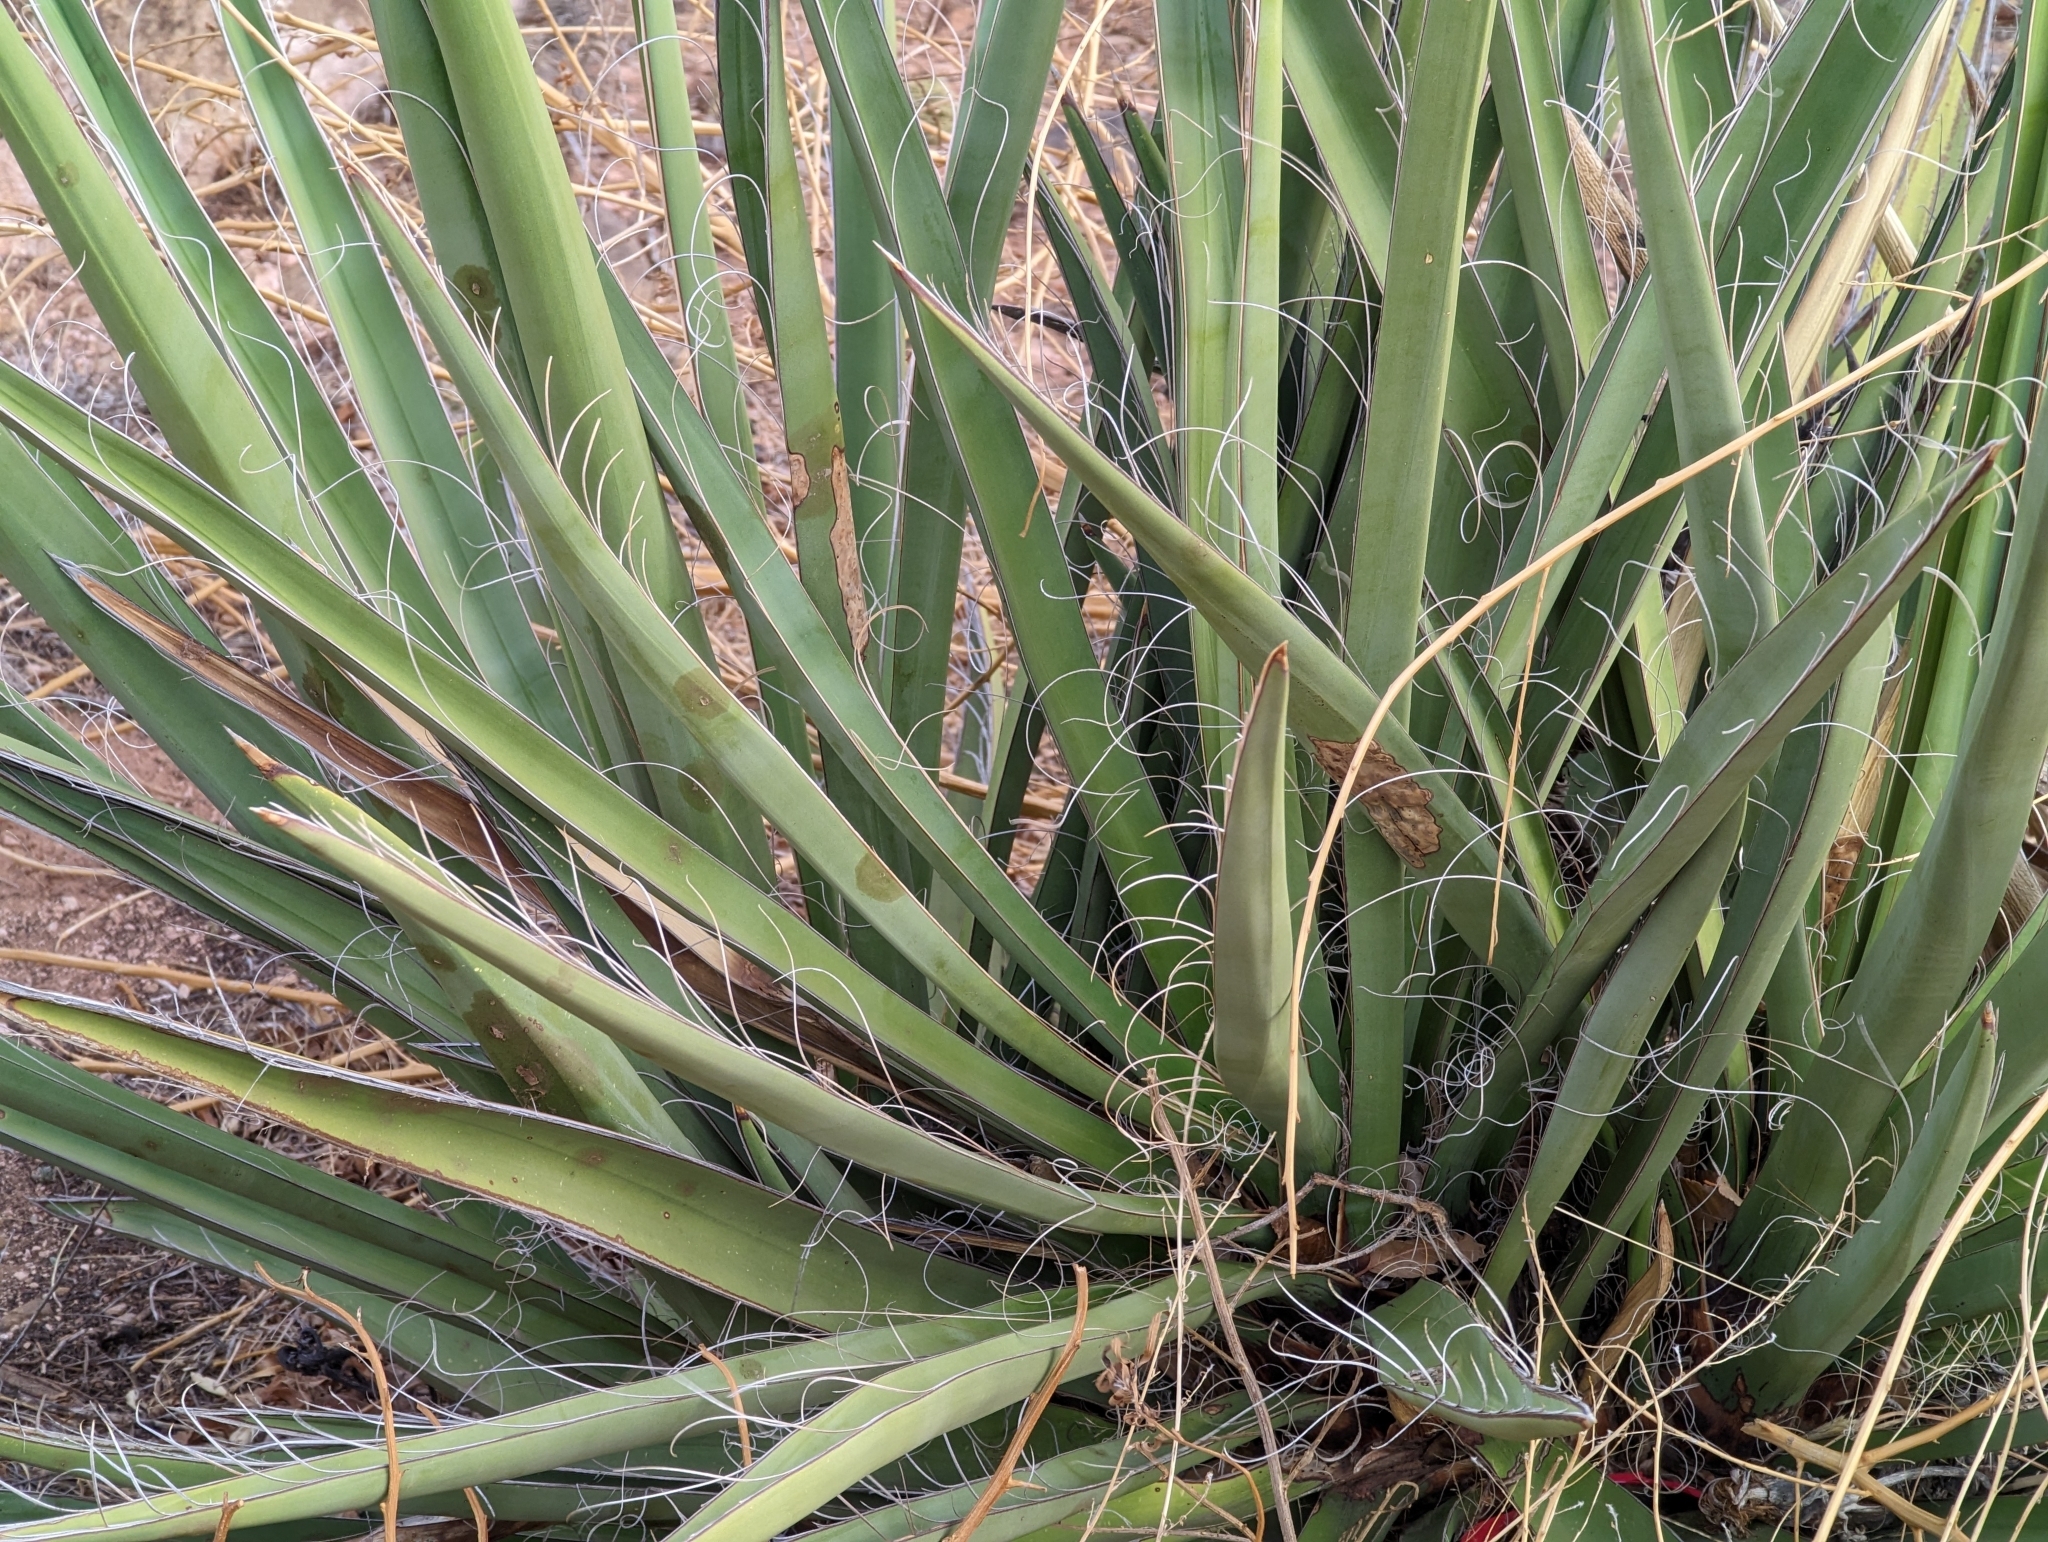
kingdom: Plantae
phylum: Tracheophyta
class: Liliopsida
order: Asparagales
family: Asparagaceae
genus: Yucca
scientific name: Yucca baccata
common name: Banana yucca
